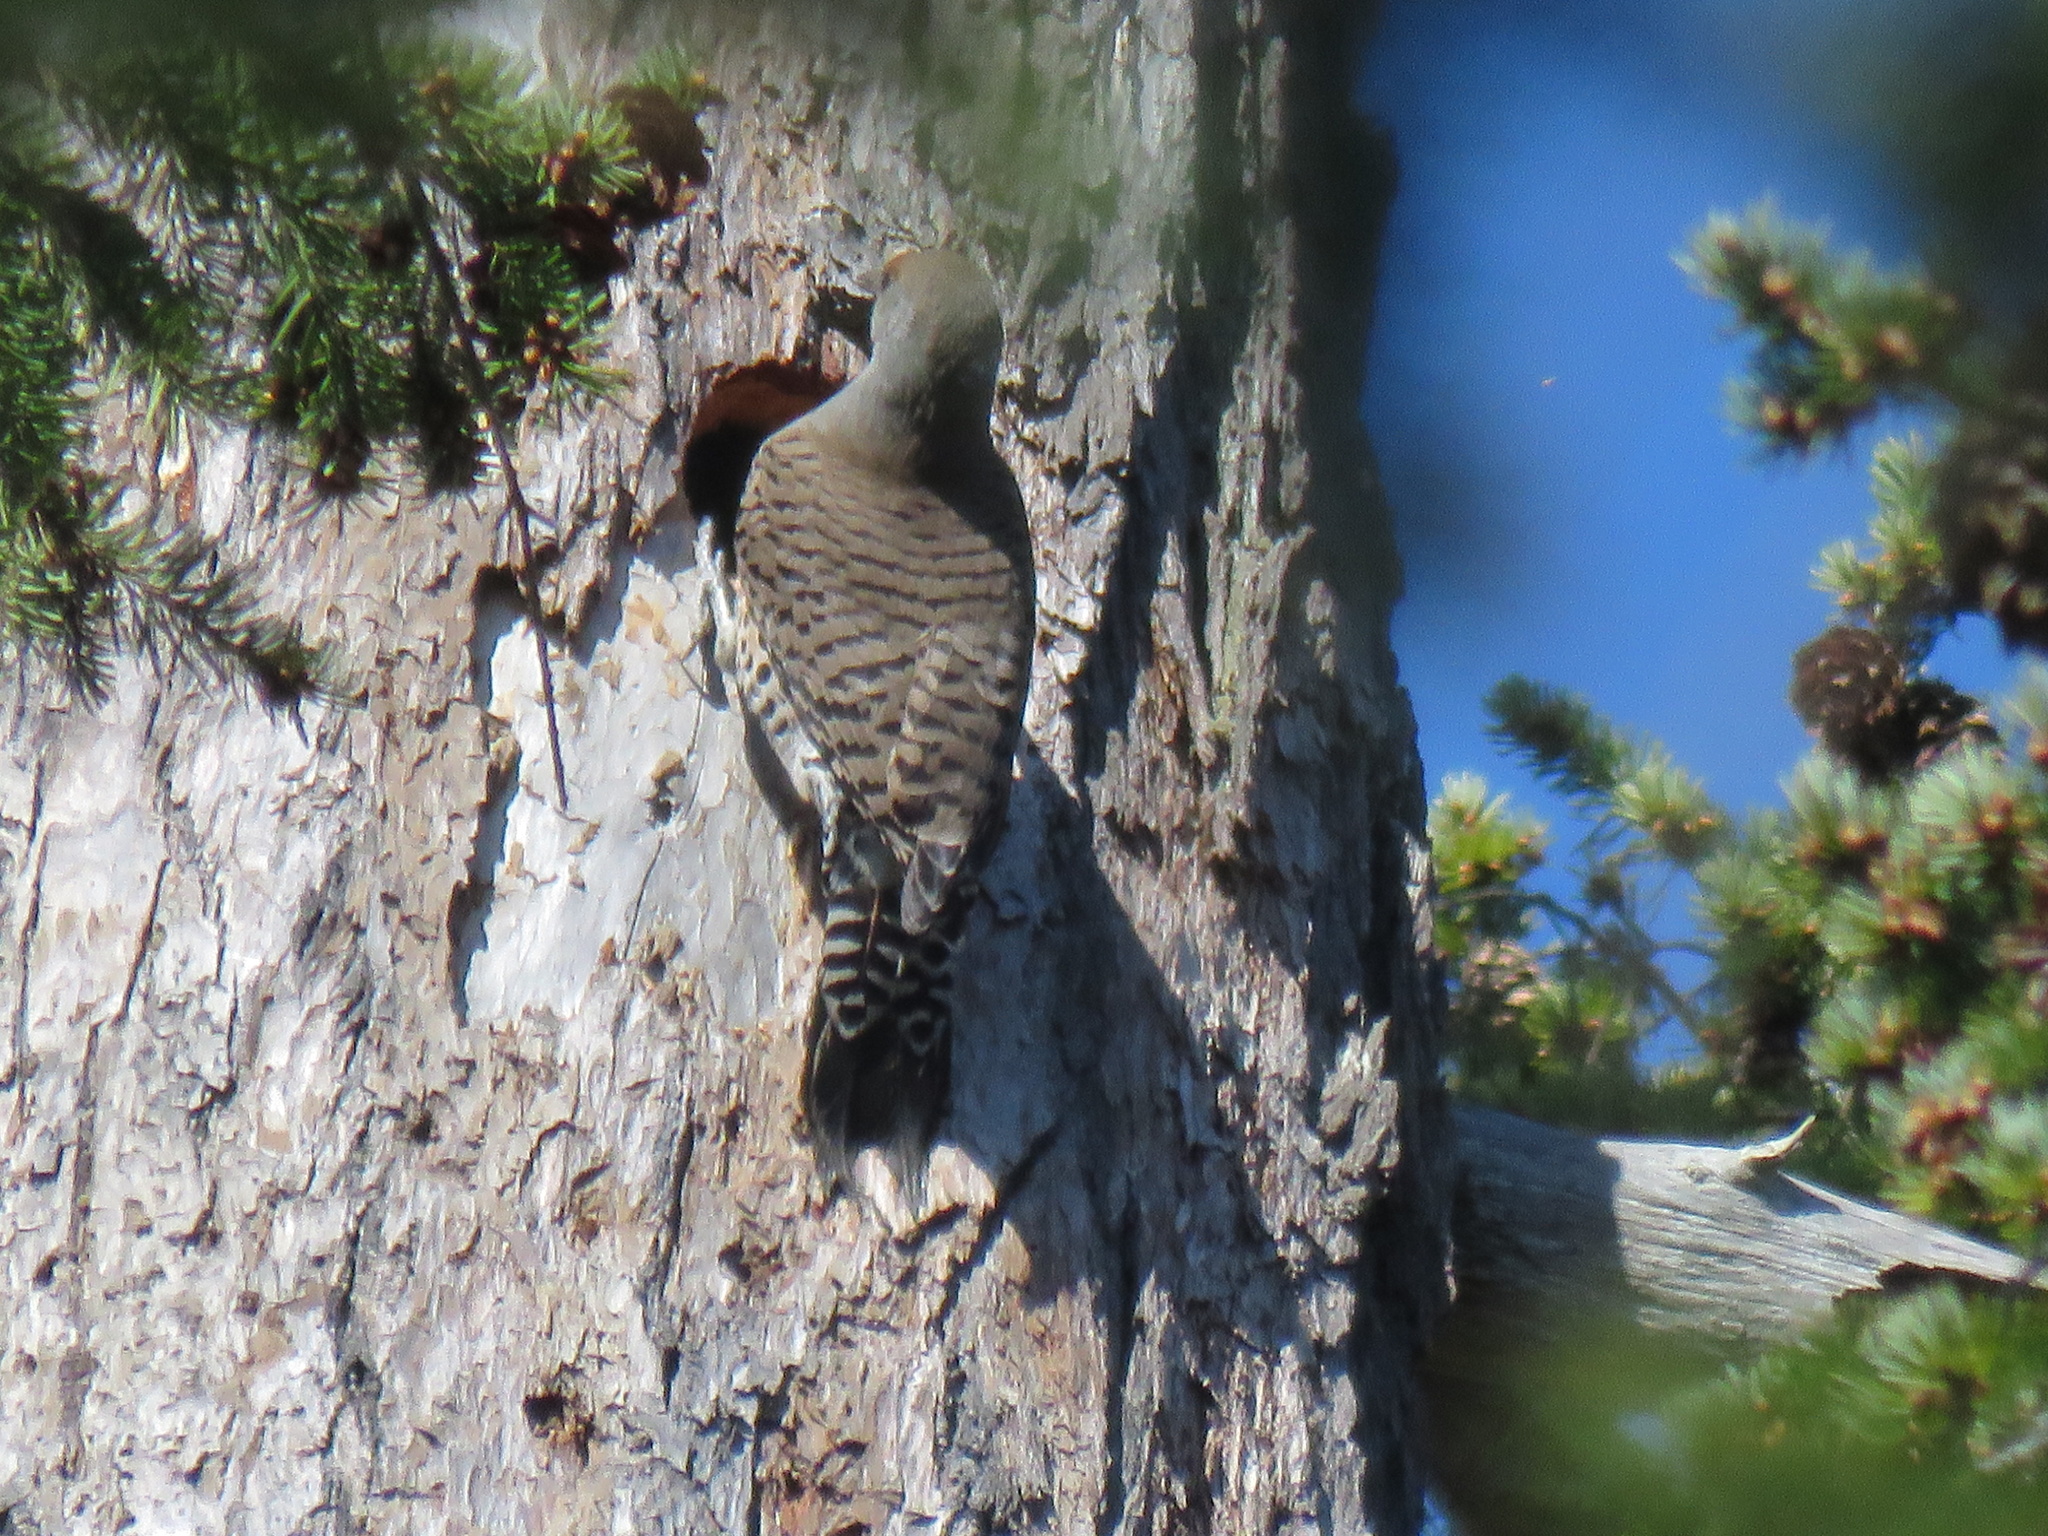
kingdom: Animalia
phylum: Chordata
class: Aves
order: Piciformes
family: Picidae
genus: Colaptes
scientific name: Colaptes auratus
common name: Northern flicker
